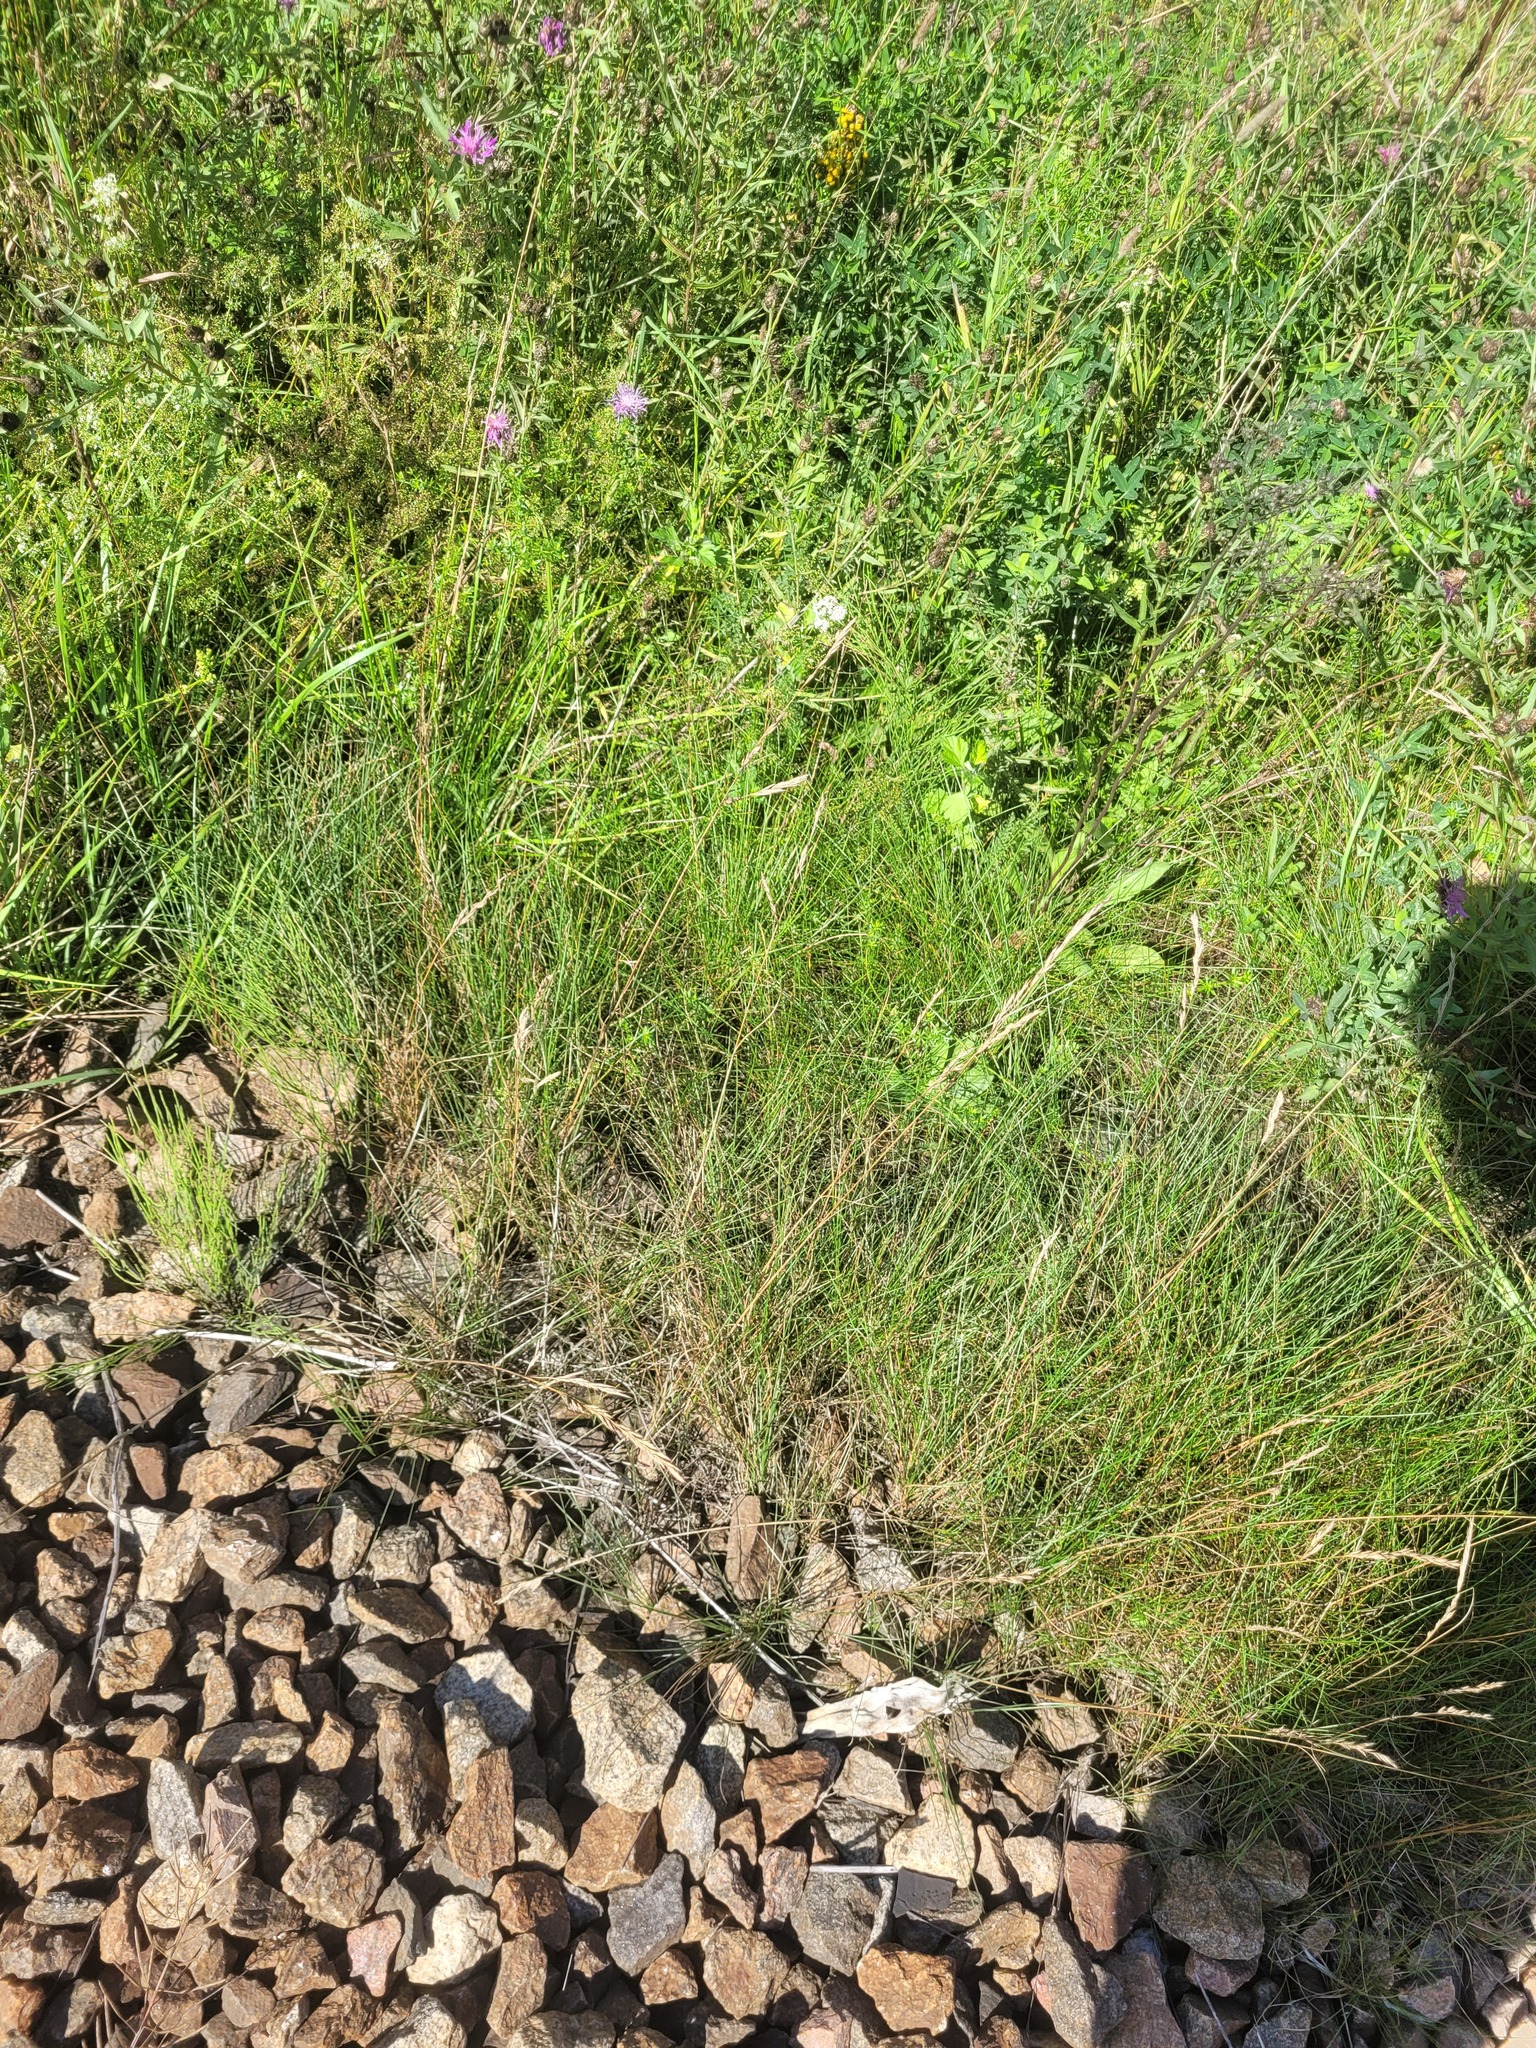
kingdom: Plantae
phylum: Tracheophyta
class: Liliopsida
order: Poales
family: Poaceae
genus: Festuca
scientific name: Festuca rubra
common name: Red fescue
